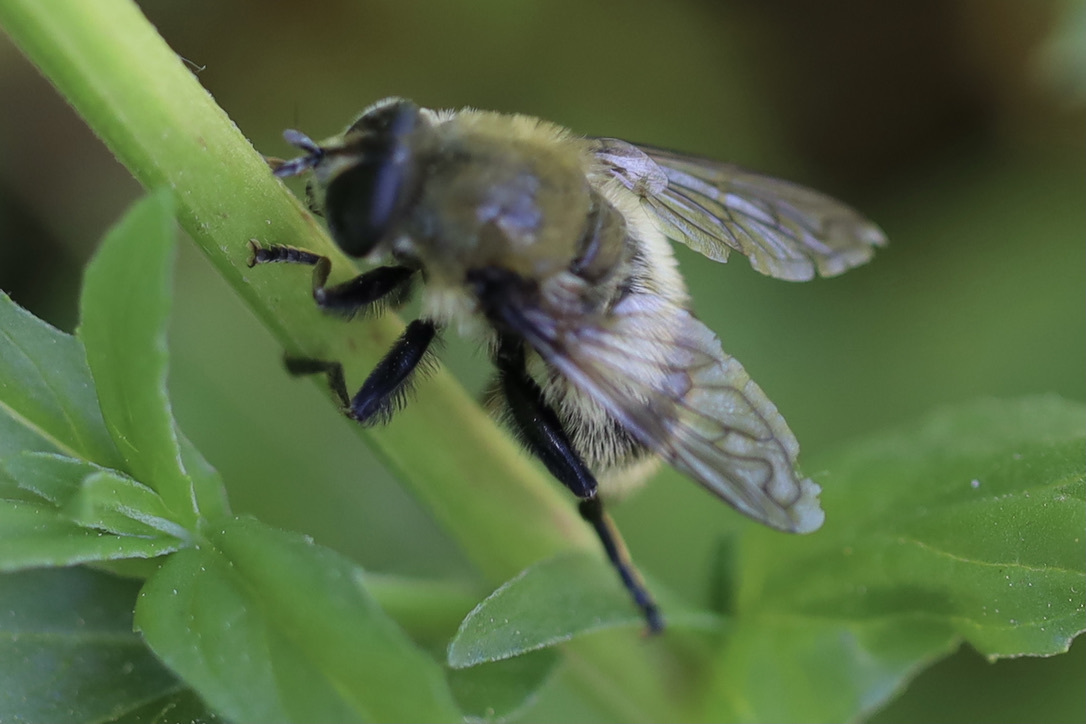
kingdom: Animalia
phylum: Arthropoda
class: Insecta
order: Diptera
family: Syrphidae
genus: Merodon
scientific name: Merodon equestris
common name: Greater bulb-fly
